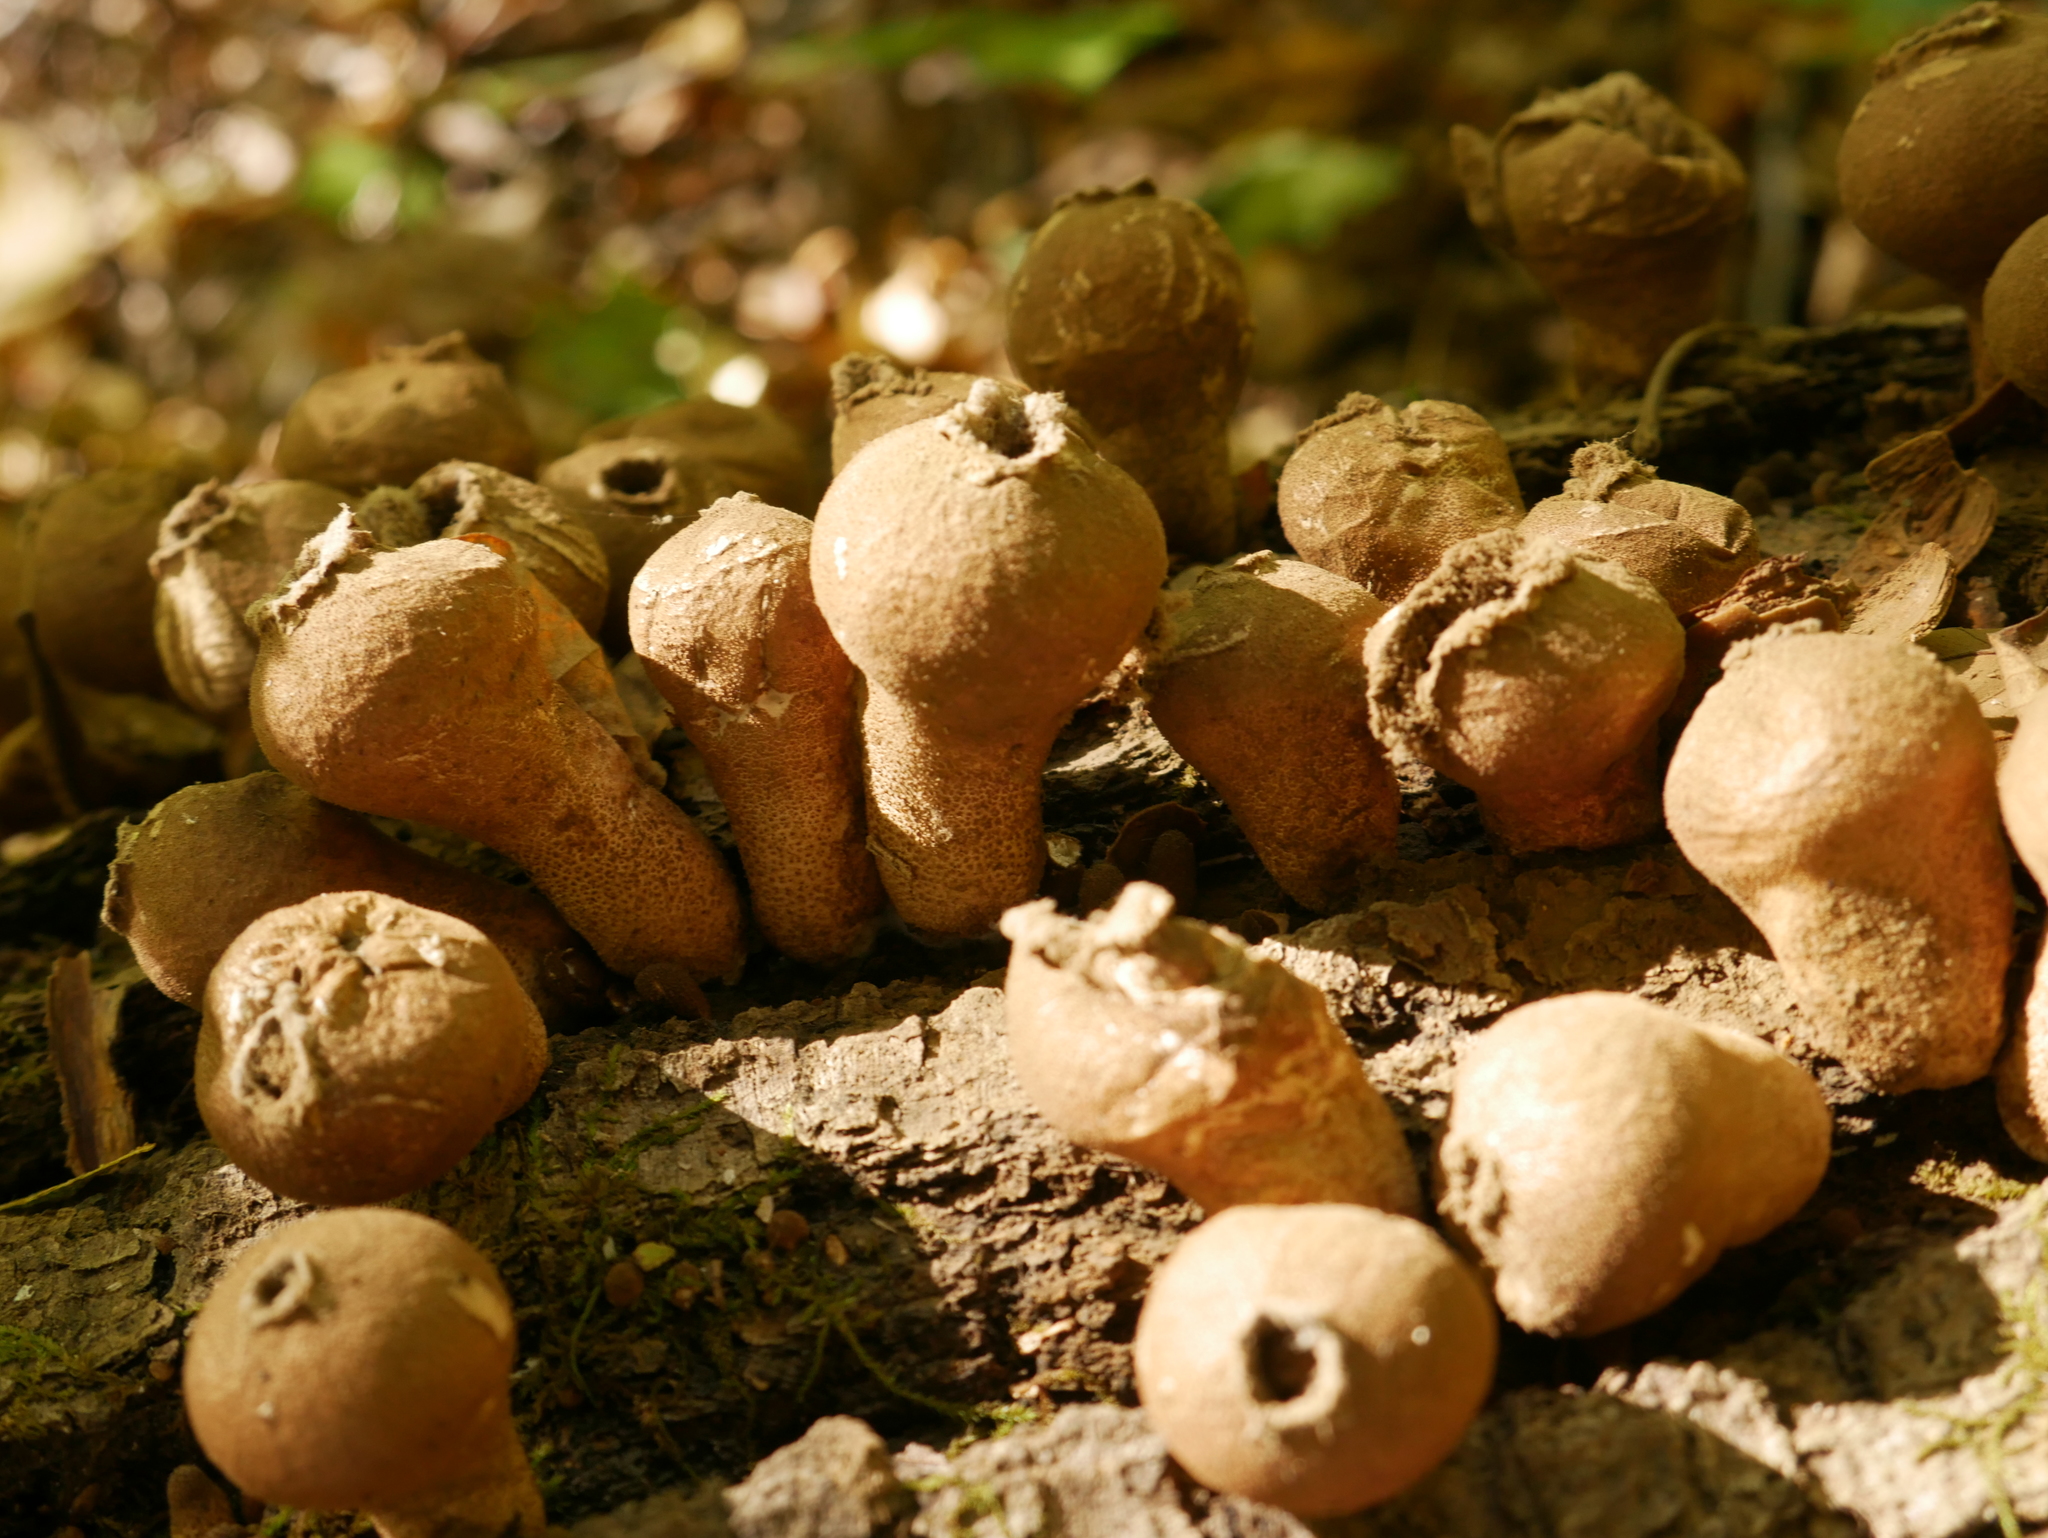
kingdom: Fungi
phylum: Basidiomycota
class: Agaricomycetes
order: Agaricales
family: Lycoperdaceae
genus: Apioperdon
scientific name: Apioperdon pyriforme
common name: Pear-shaped puffball
